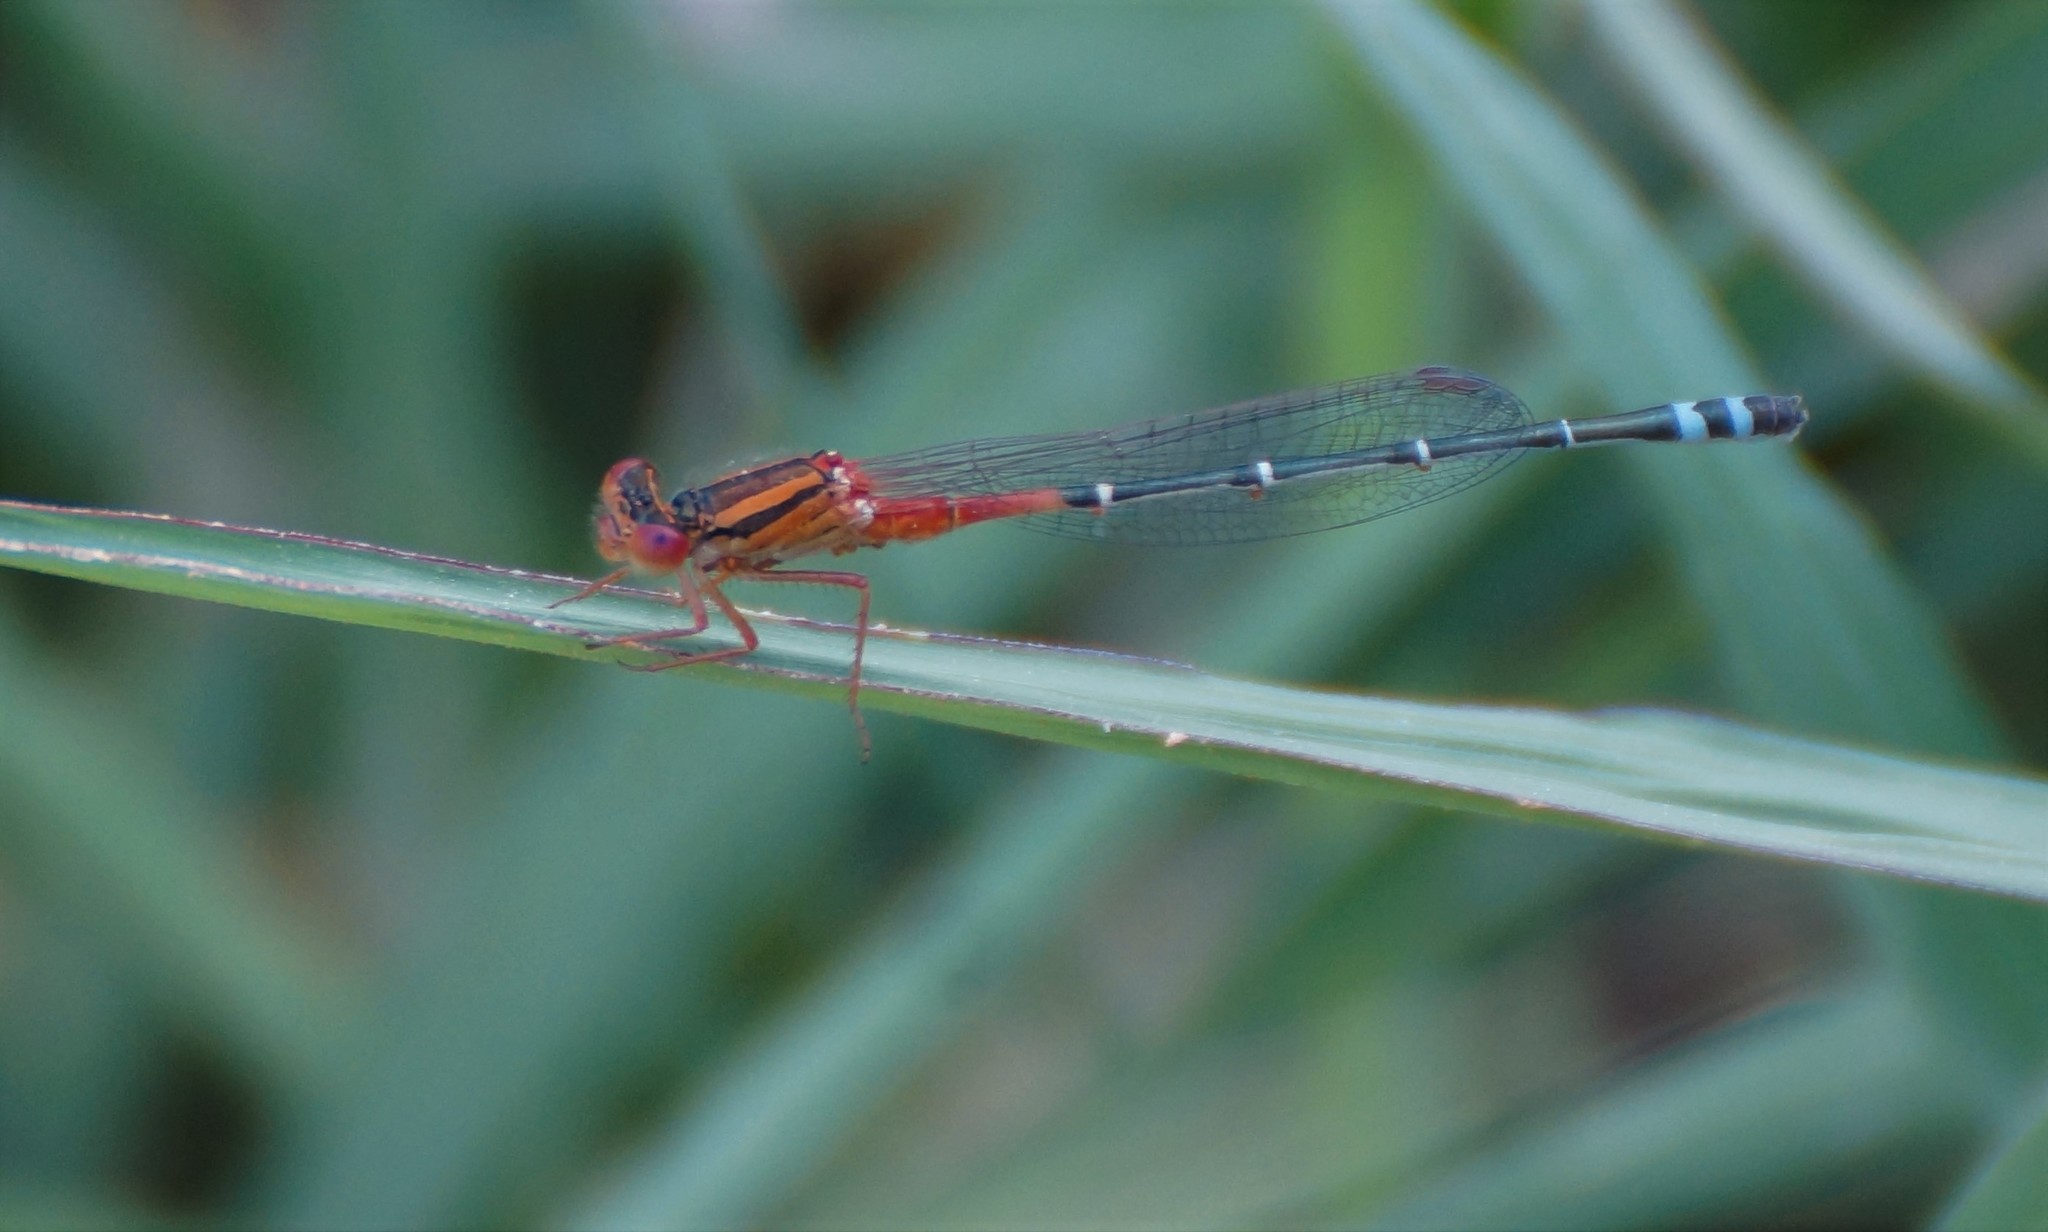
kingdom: Animalia
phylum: Arthropoda
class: Insecta
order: Odonata
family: Coenagrionidae
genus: Xanthagrion
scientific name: Xanthagrion erythroneurum
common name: Red and blue damsel
